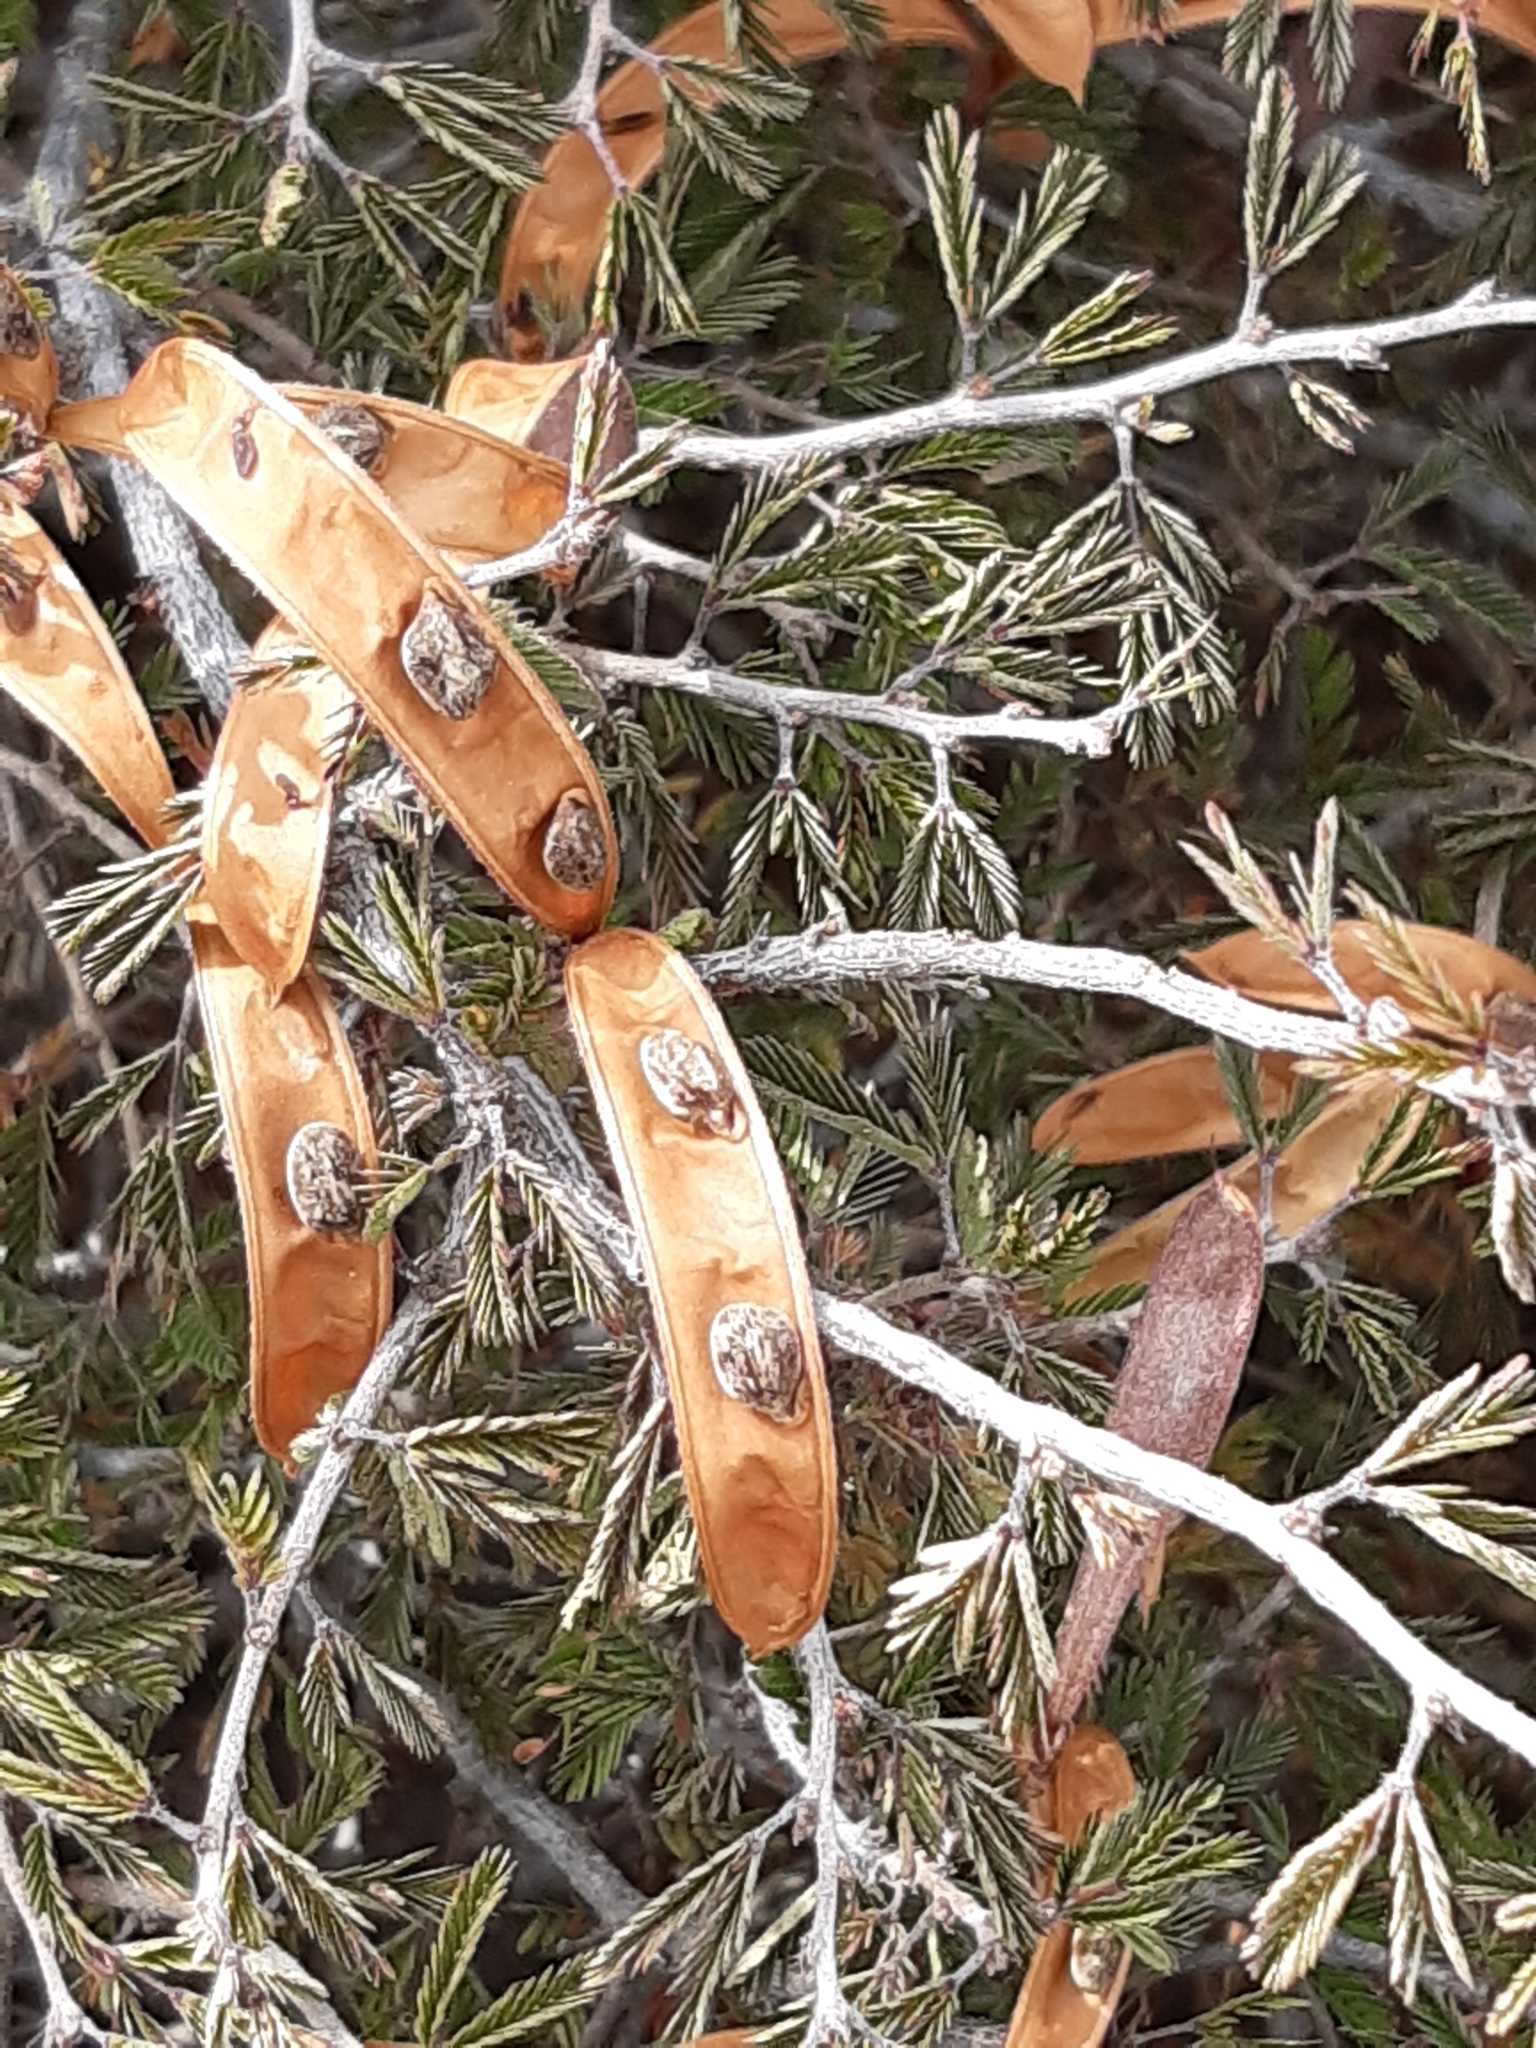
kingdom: Plantae
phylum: Tracheophyta
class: Magnoliopsida
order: Fabales
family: Fabaceae
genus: Calliandra
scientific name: Calliandra eriophylla
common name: Fairy-duster
